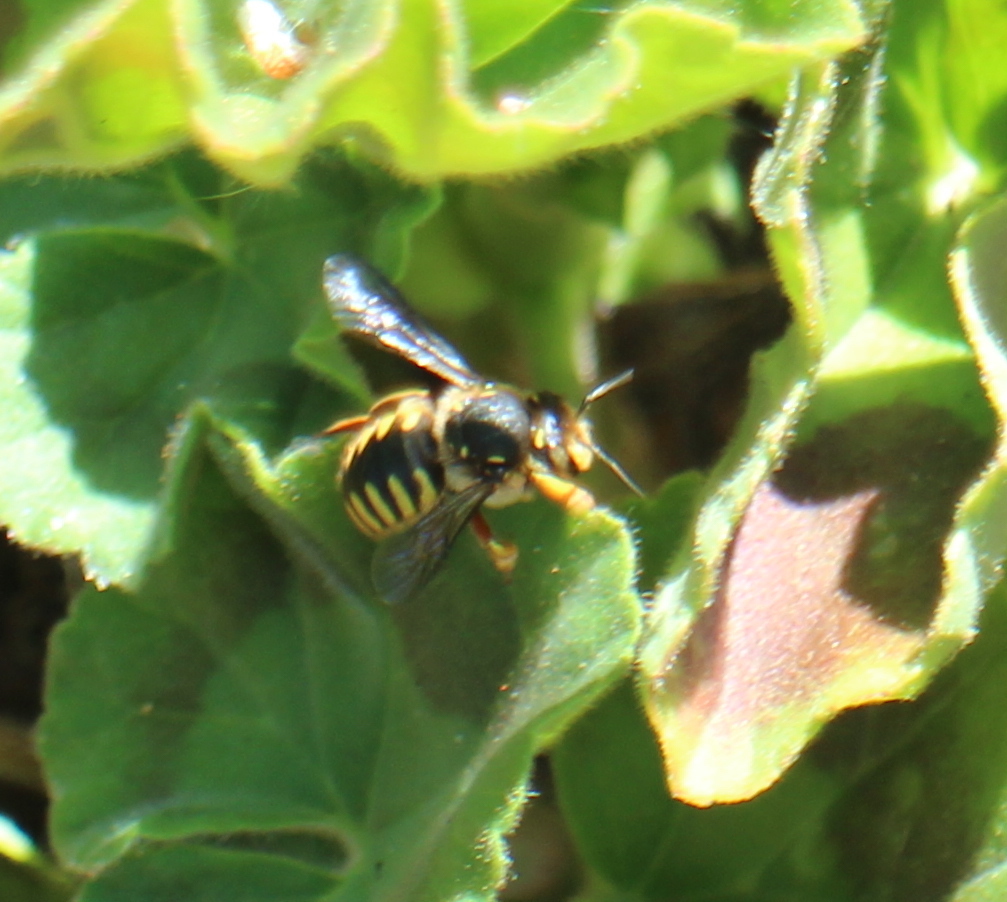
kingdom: Animalia
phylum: Arthropoda
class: Insecta
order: Hymenoptera
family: Megachilidae
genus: Anthidium
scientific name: Anthidium manicatum
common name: Wool carder bee
